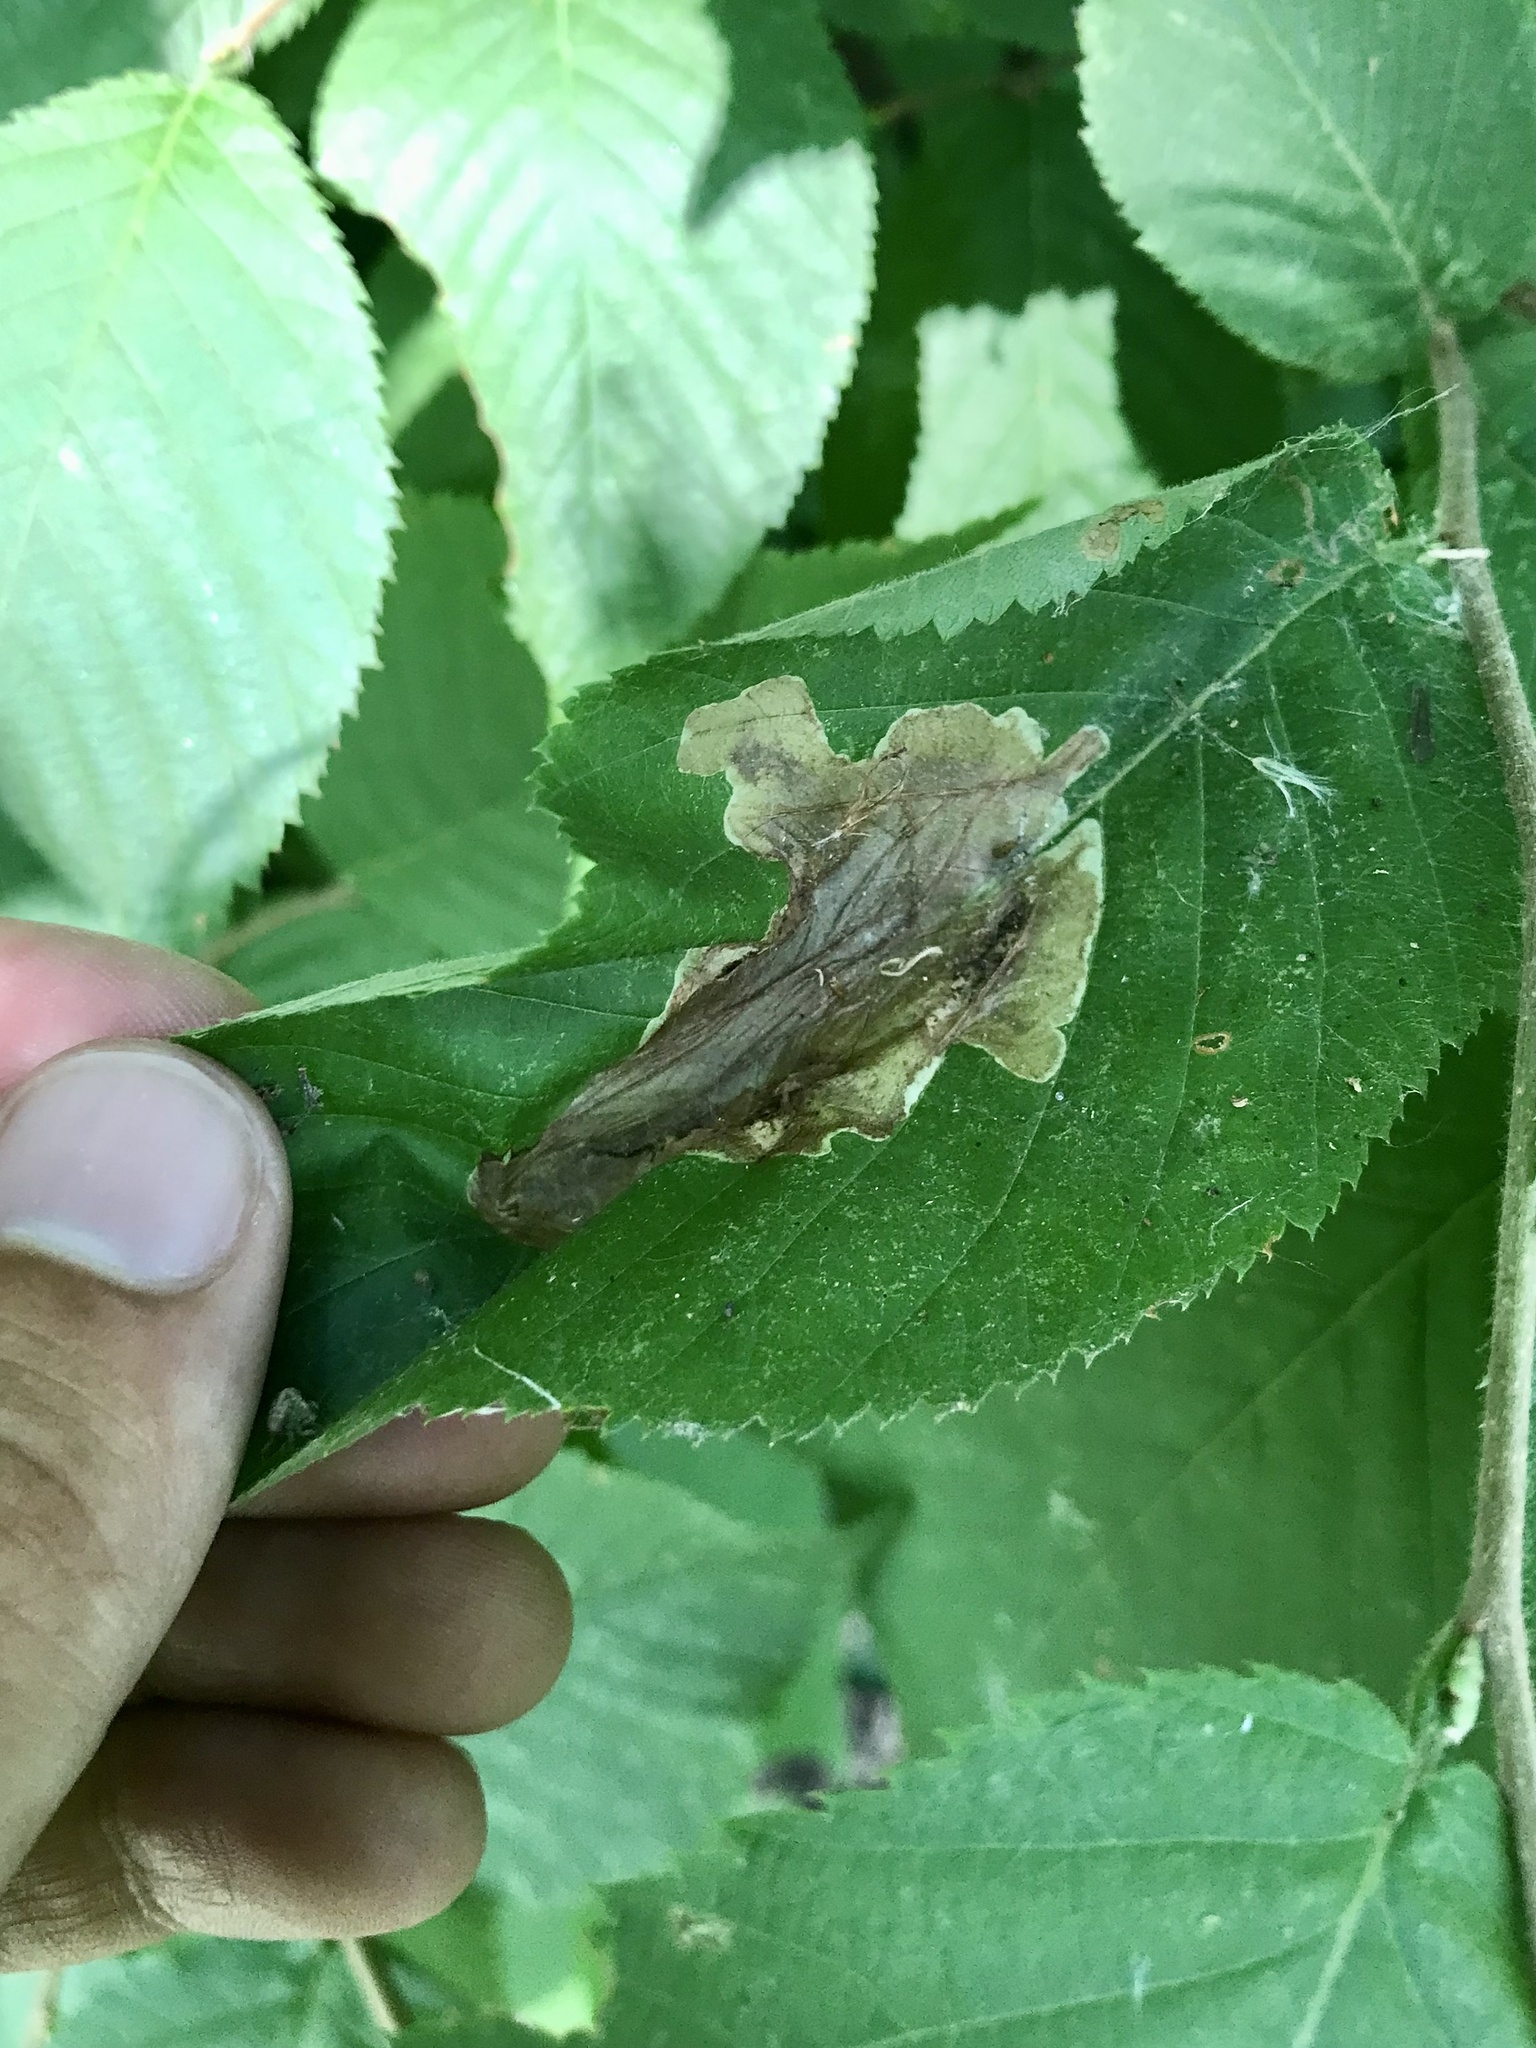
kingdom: Animalia
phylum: Arthropoda
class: Insecta
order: Lepidoptera
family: Gracillariidae
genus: Cameraria
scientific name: Cameraria lentella
